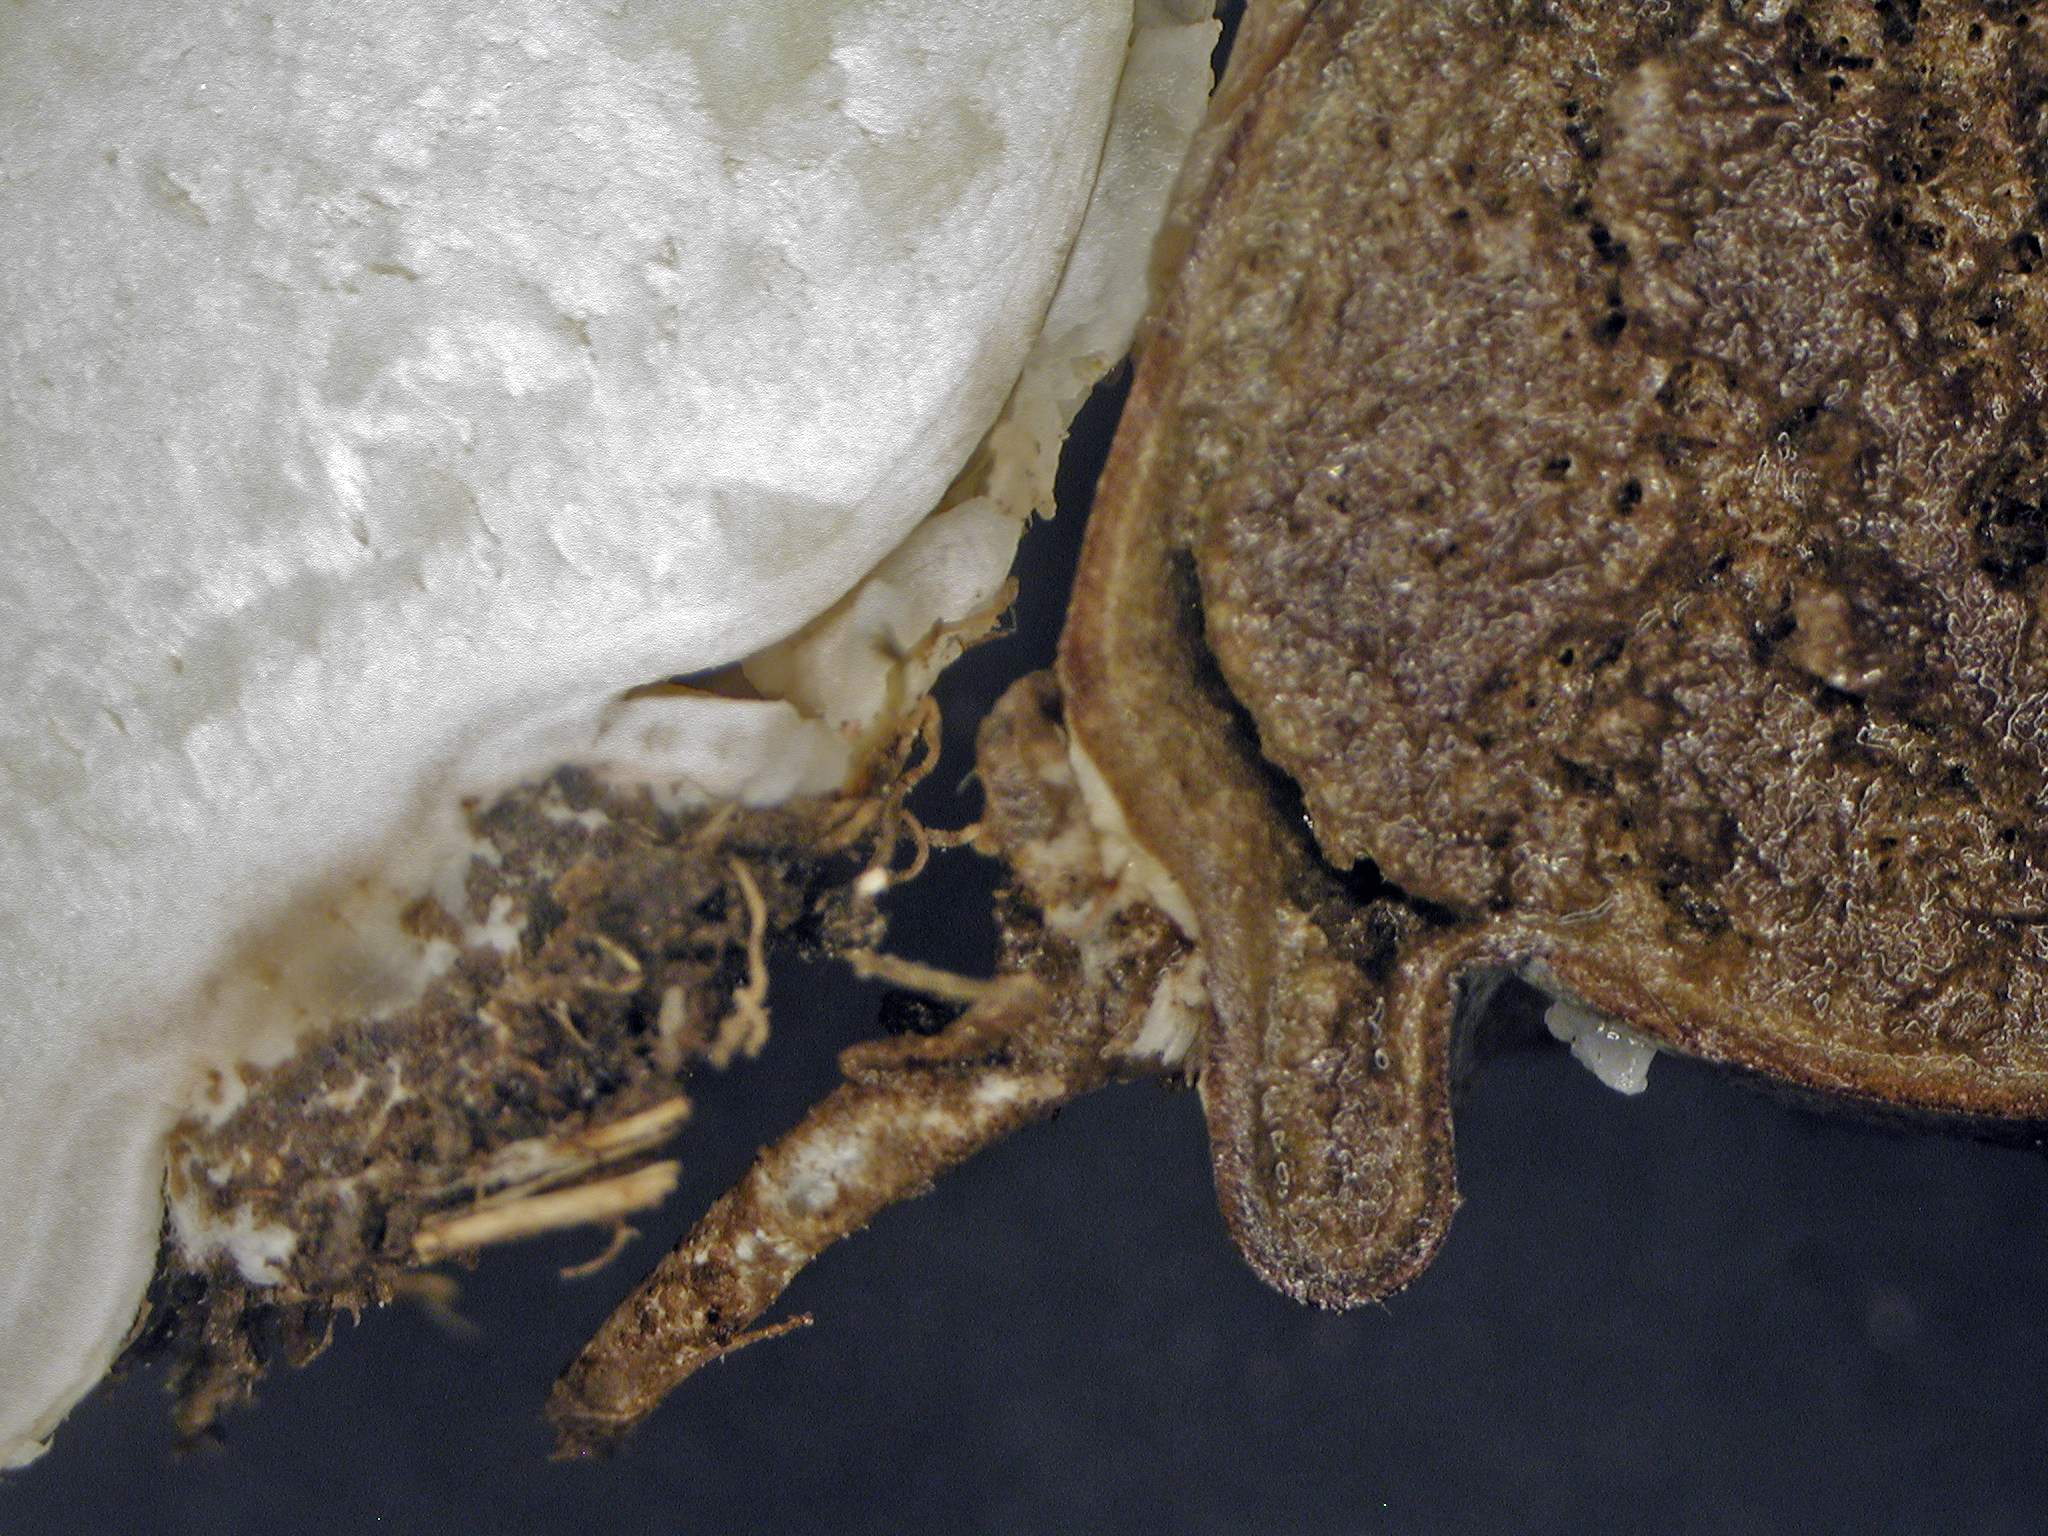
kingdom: Fungi
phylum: Basidiomycota
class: Agaricomycetes
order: Agaricales
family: Lycoperdaceae
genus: Bovista
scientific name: Bovista plumbea
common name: Grey puffball
